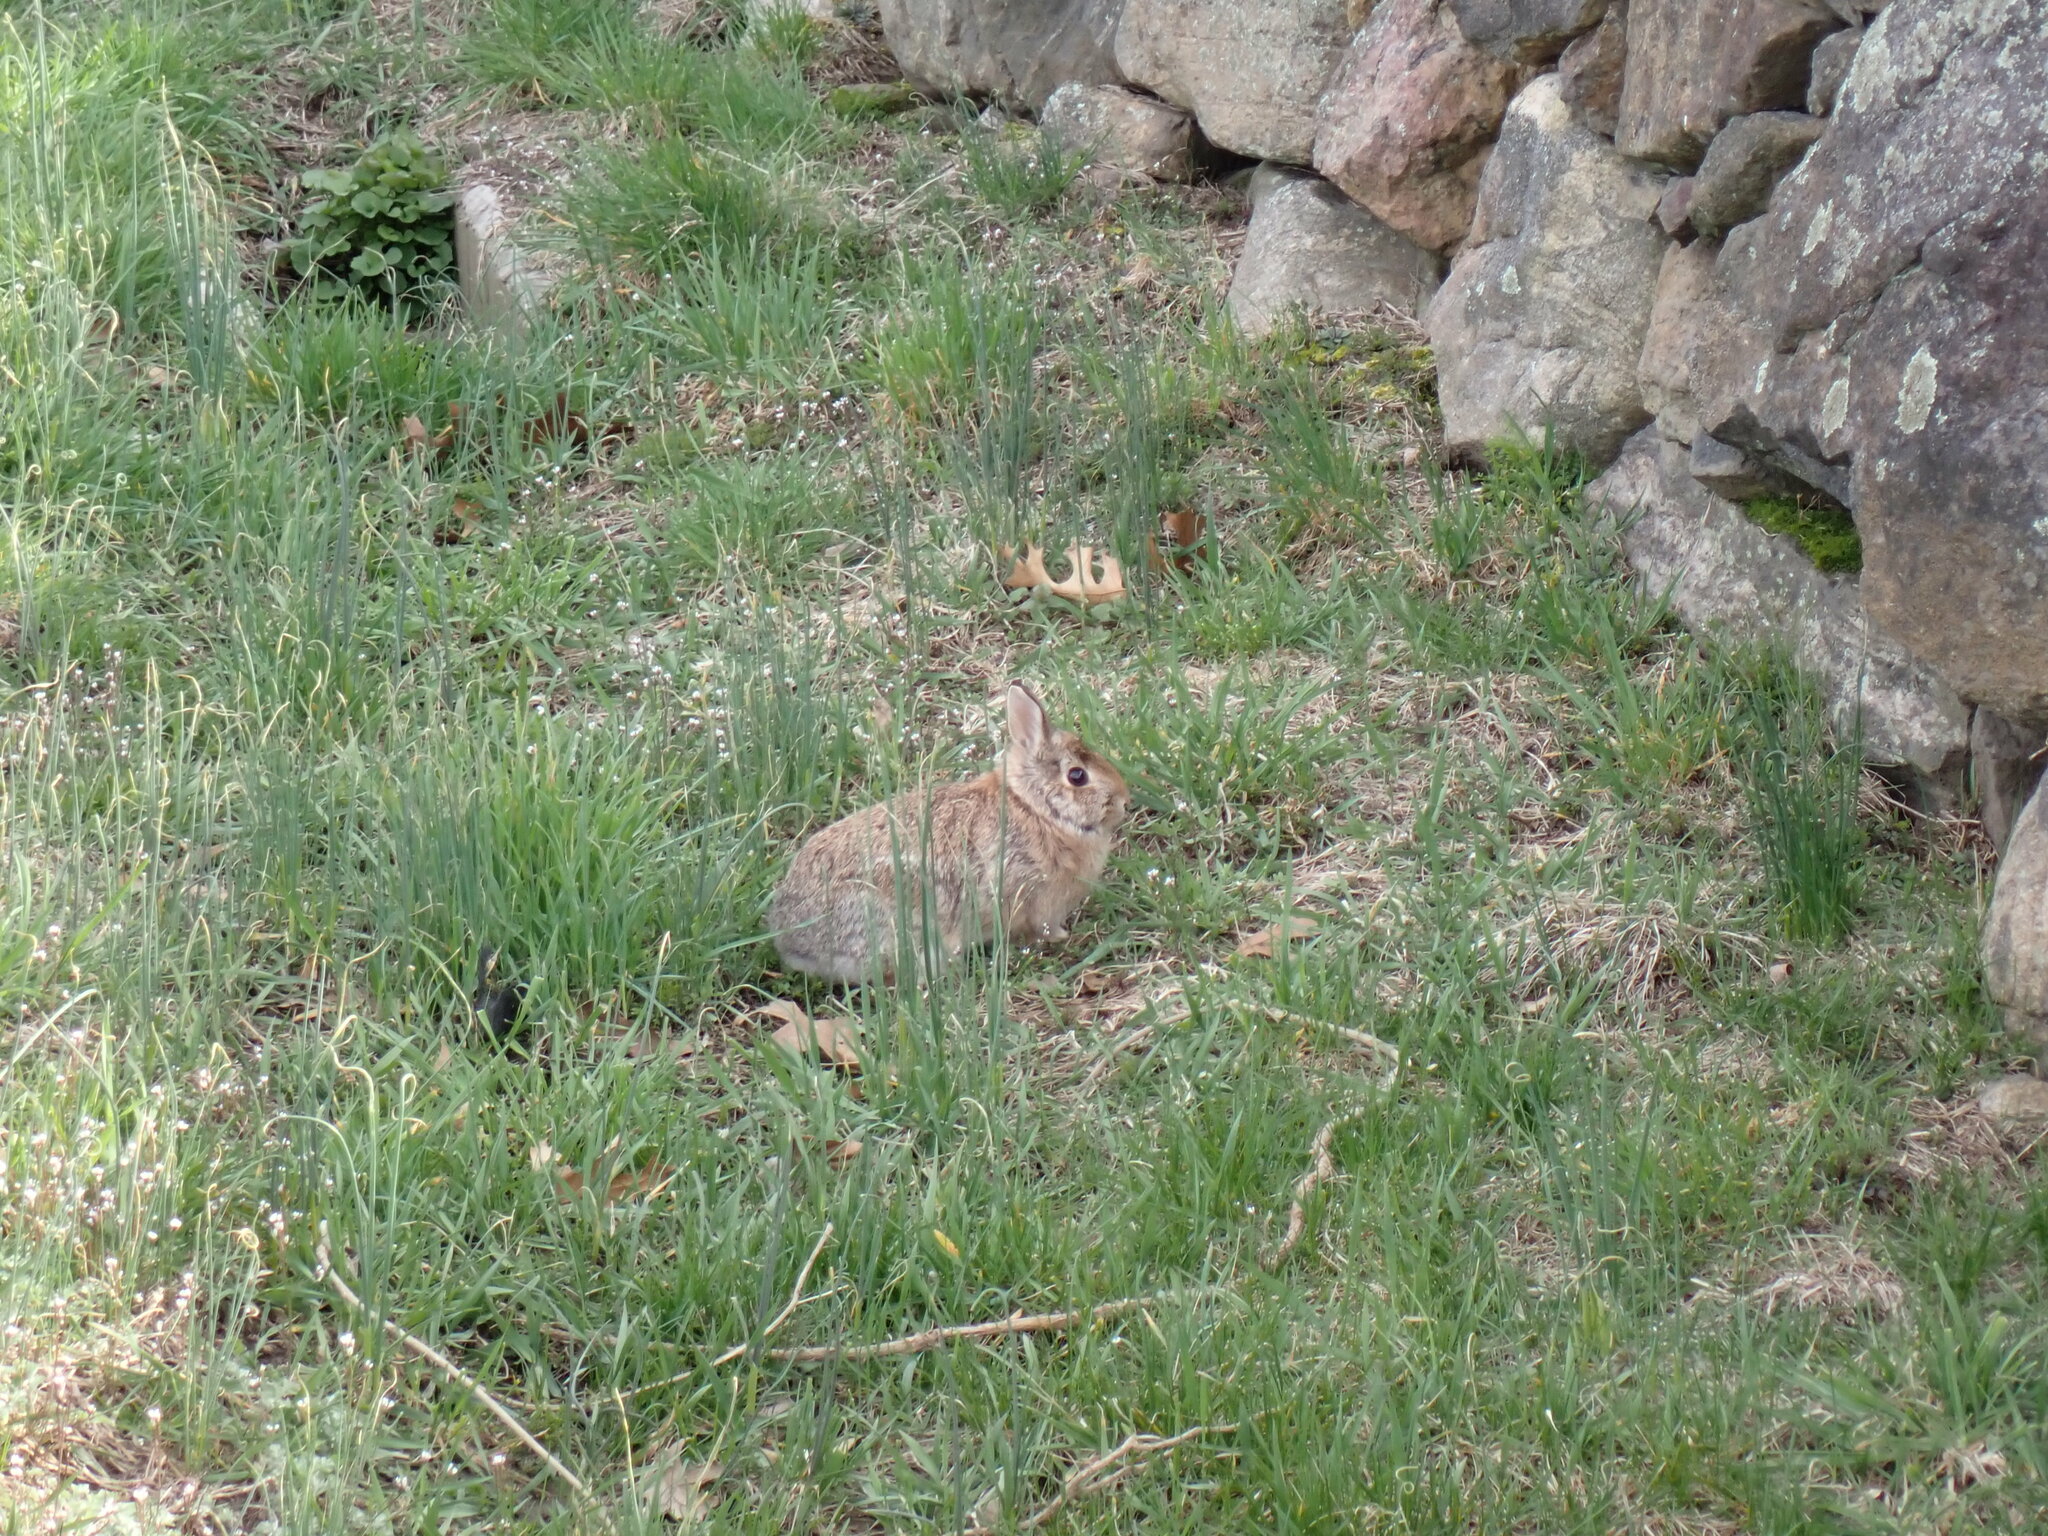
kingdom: Animalia
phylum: Chordata
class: Mammalia
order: Lagomorpha
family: Leporidae
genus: Sylvilagus
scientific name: Sylvilagus floridanus
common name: Eastern cottontail
